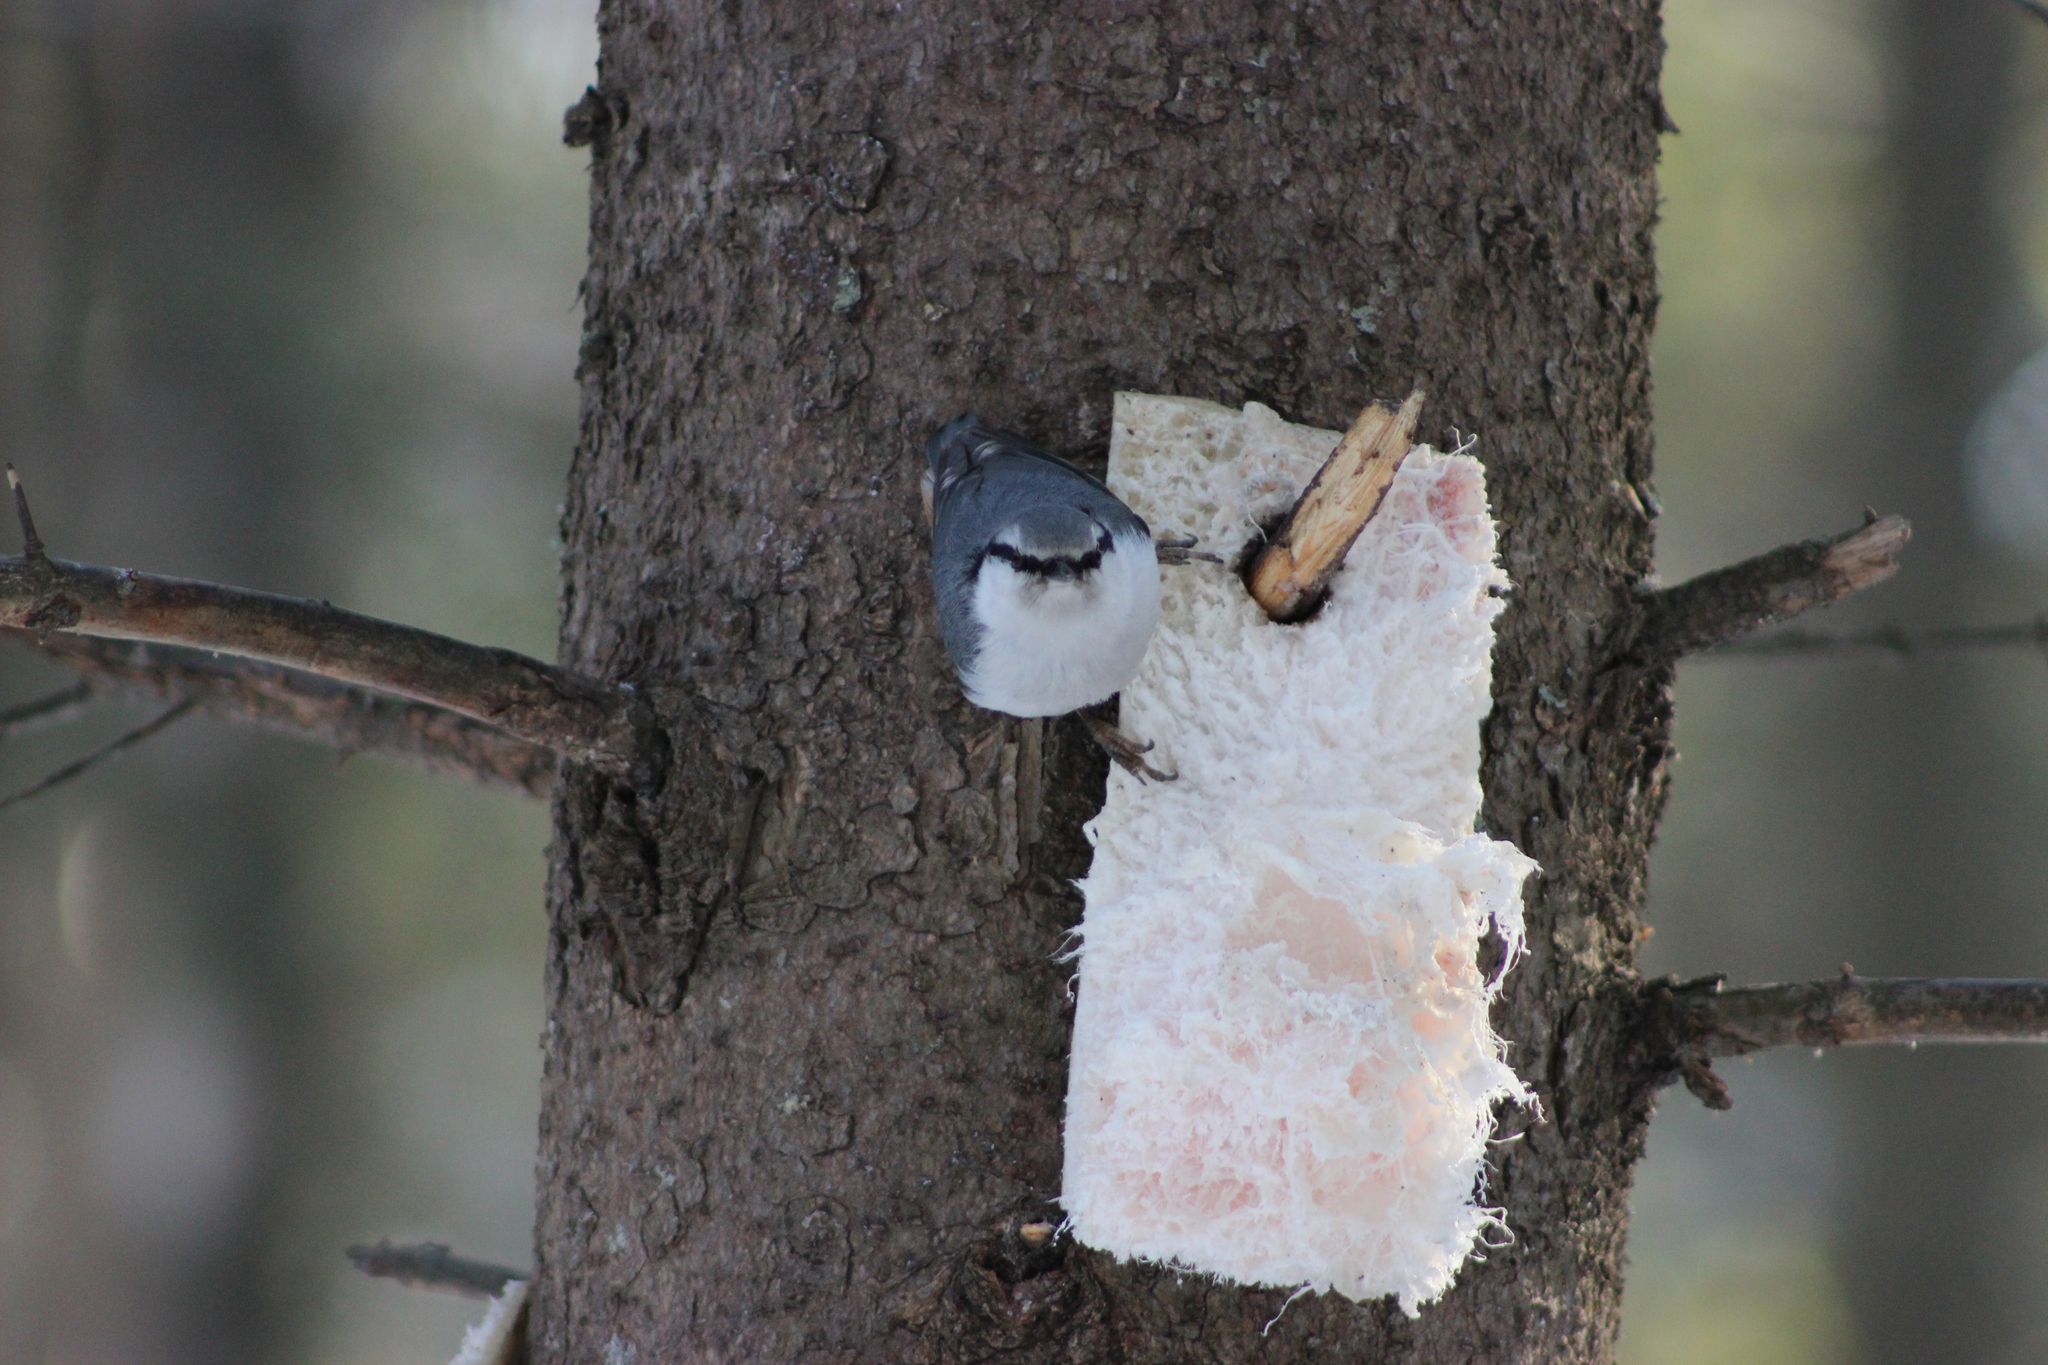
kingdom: Animalia
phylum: Chordata
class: Aves
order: Passeriformes
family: Sittidae
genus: Sitta
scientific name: Sitta europaea
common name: Eurasian nuthatch
